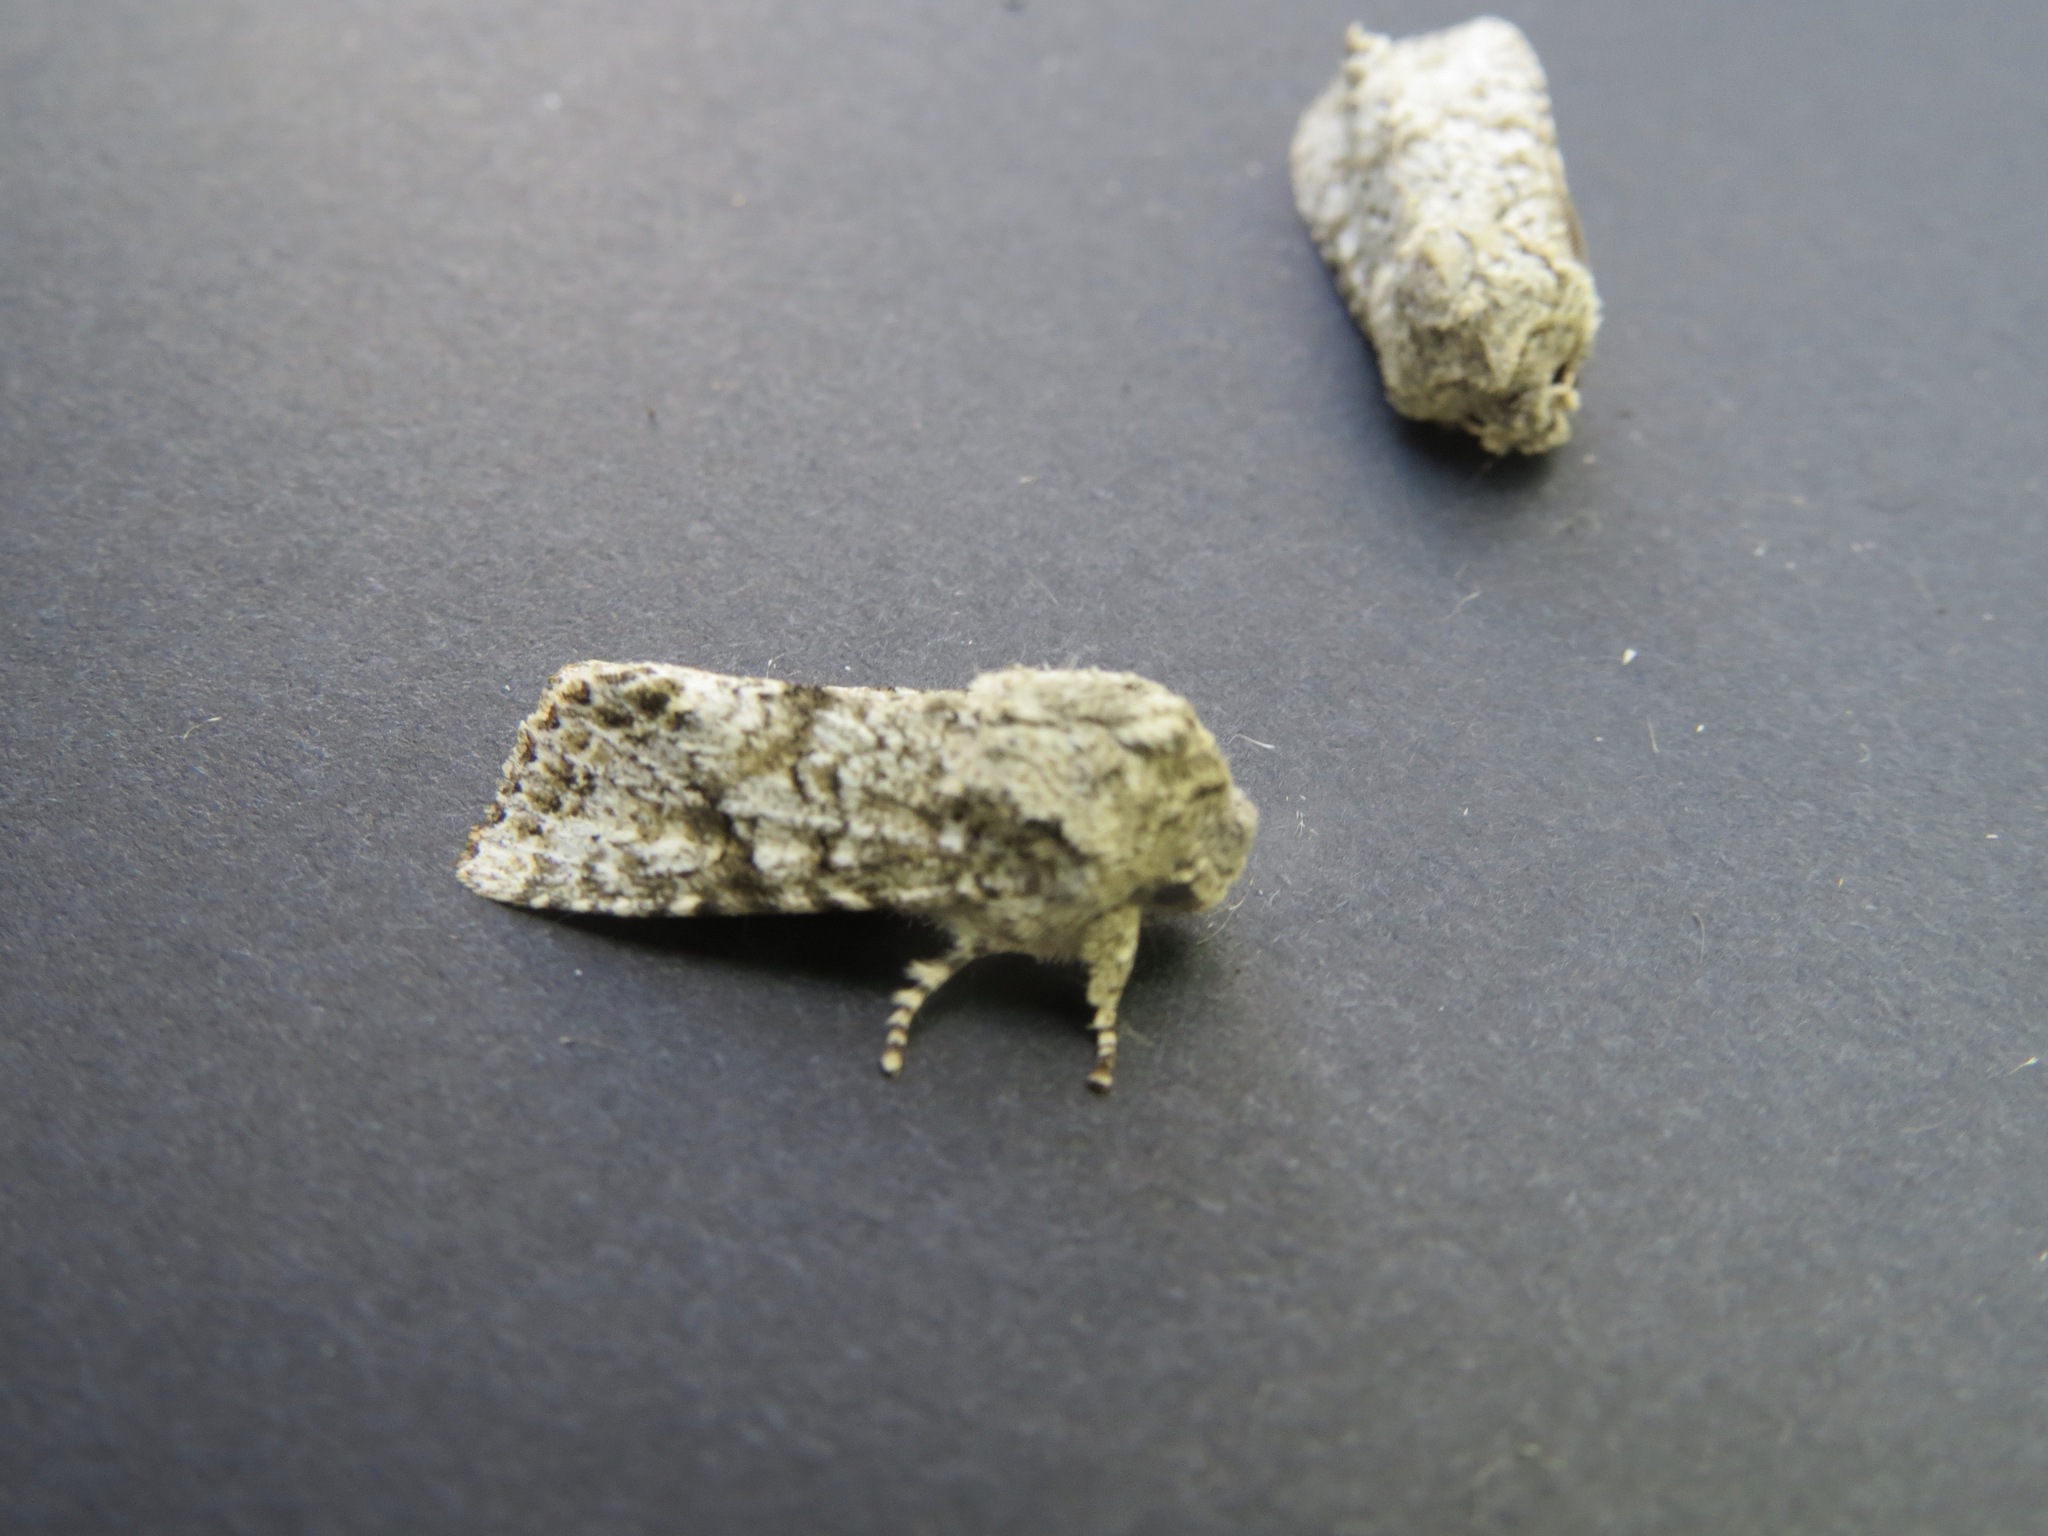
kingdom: Animalia
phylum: Arthropoda
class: Insecta
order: Lepidoptera
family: Noctuidae
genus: Egira
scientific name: Egira cognata
